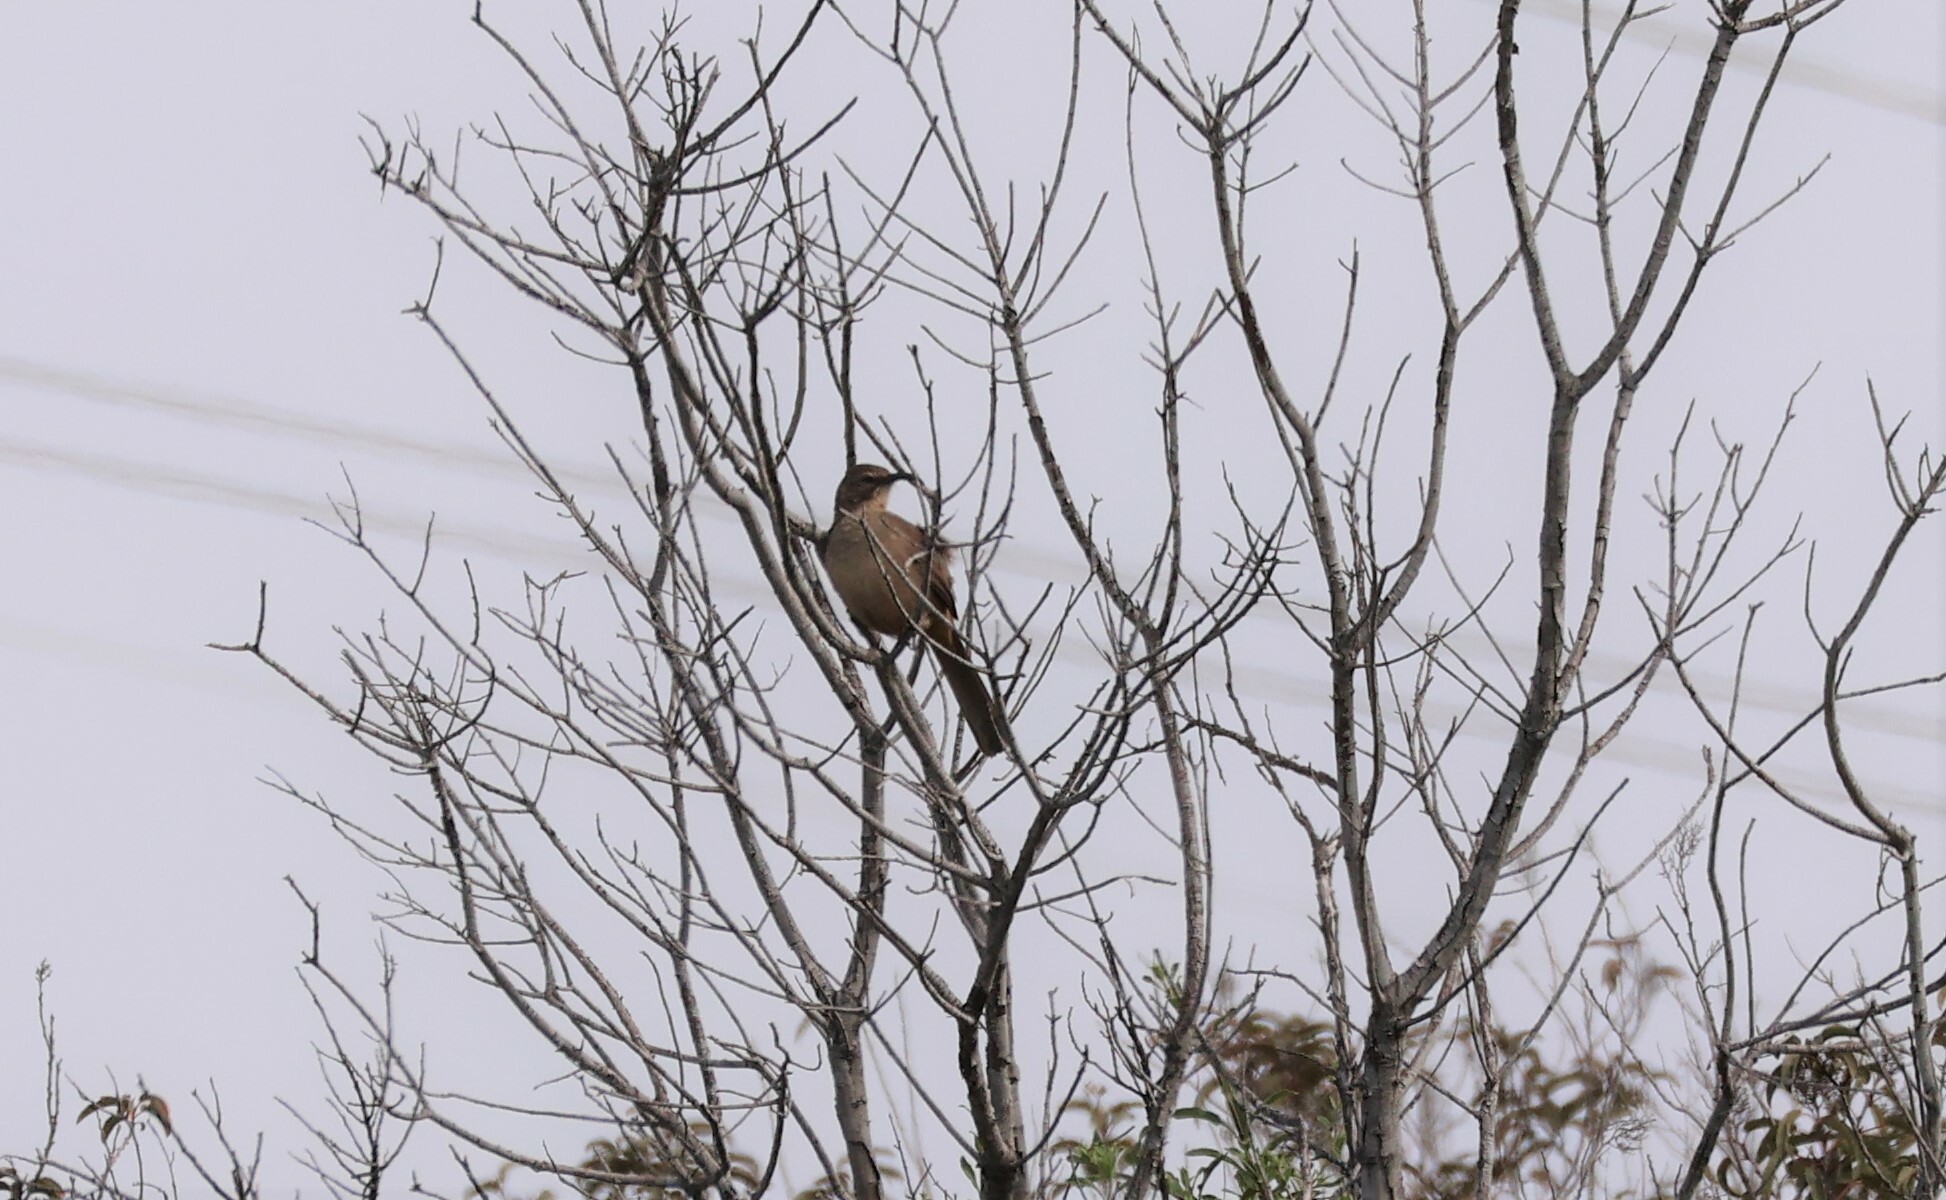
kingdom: Animalia
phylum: Chordata
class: Aves
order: Passeriformes
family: Mimidae
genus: Toxostoma
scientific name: Toxostoma redivivum
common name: California thrasher
